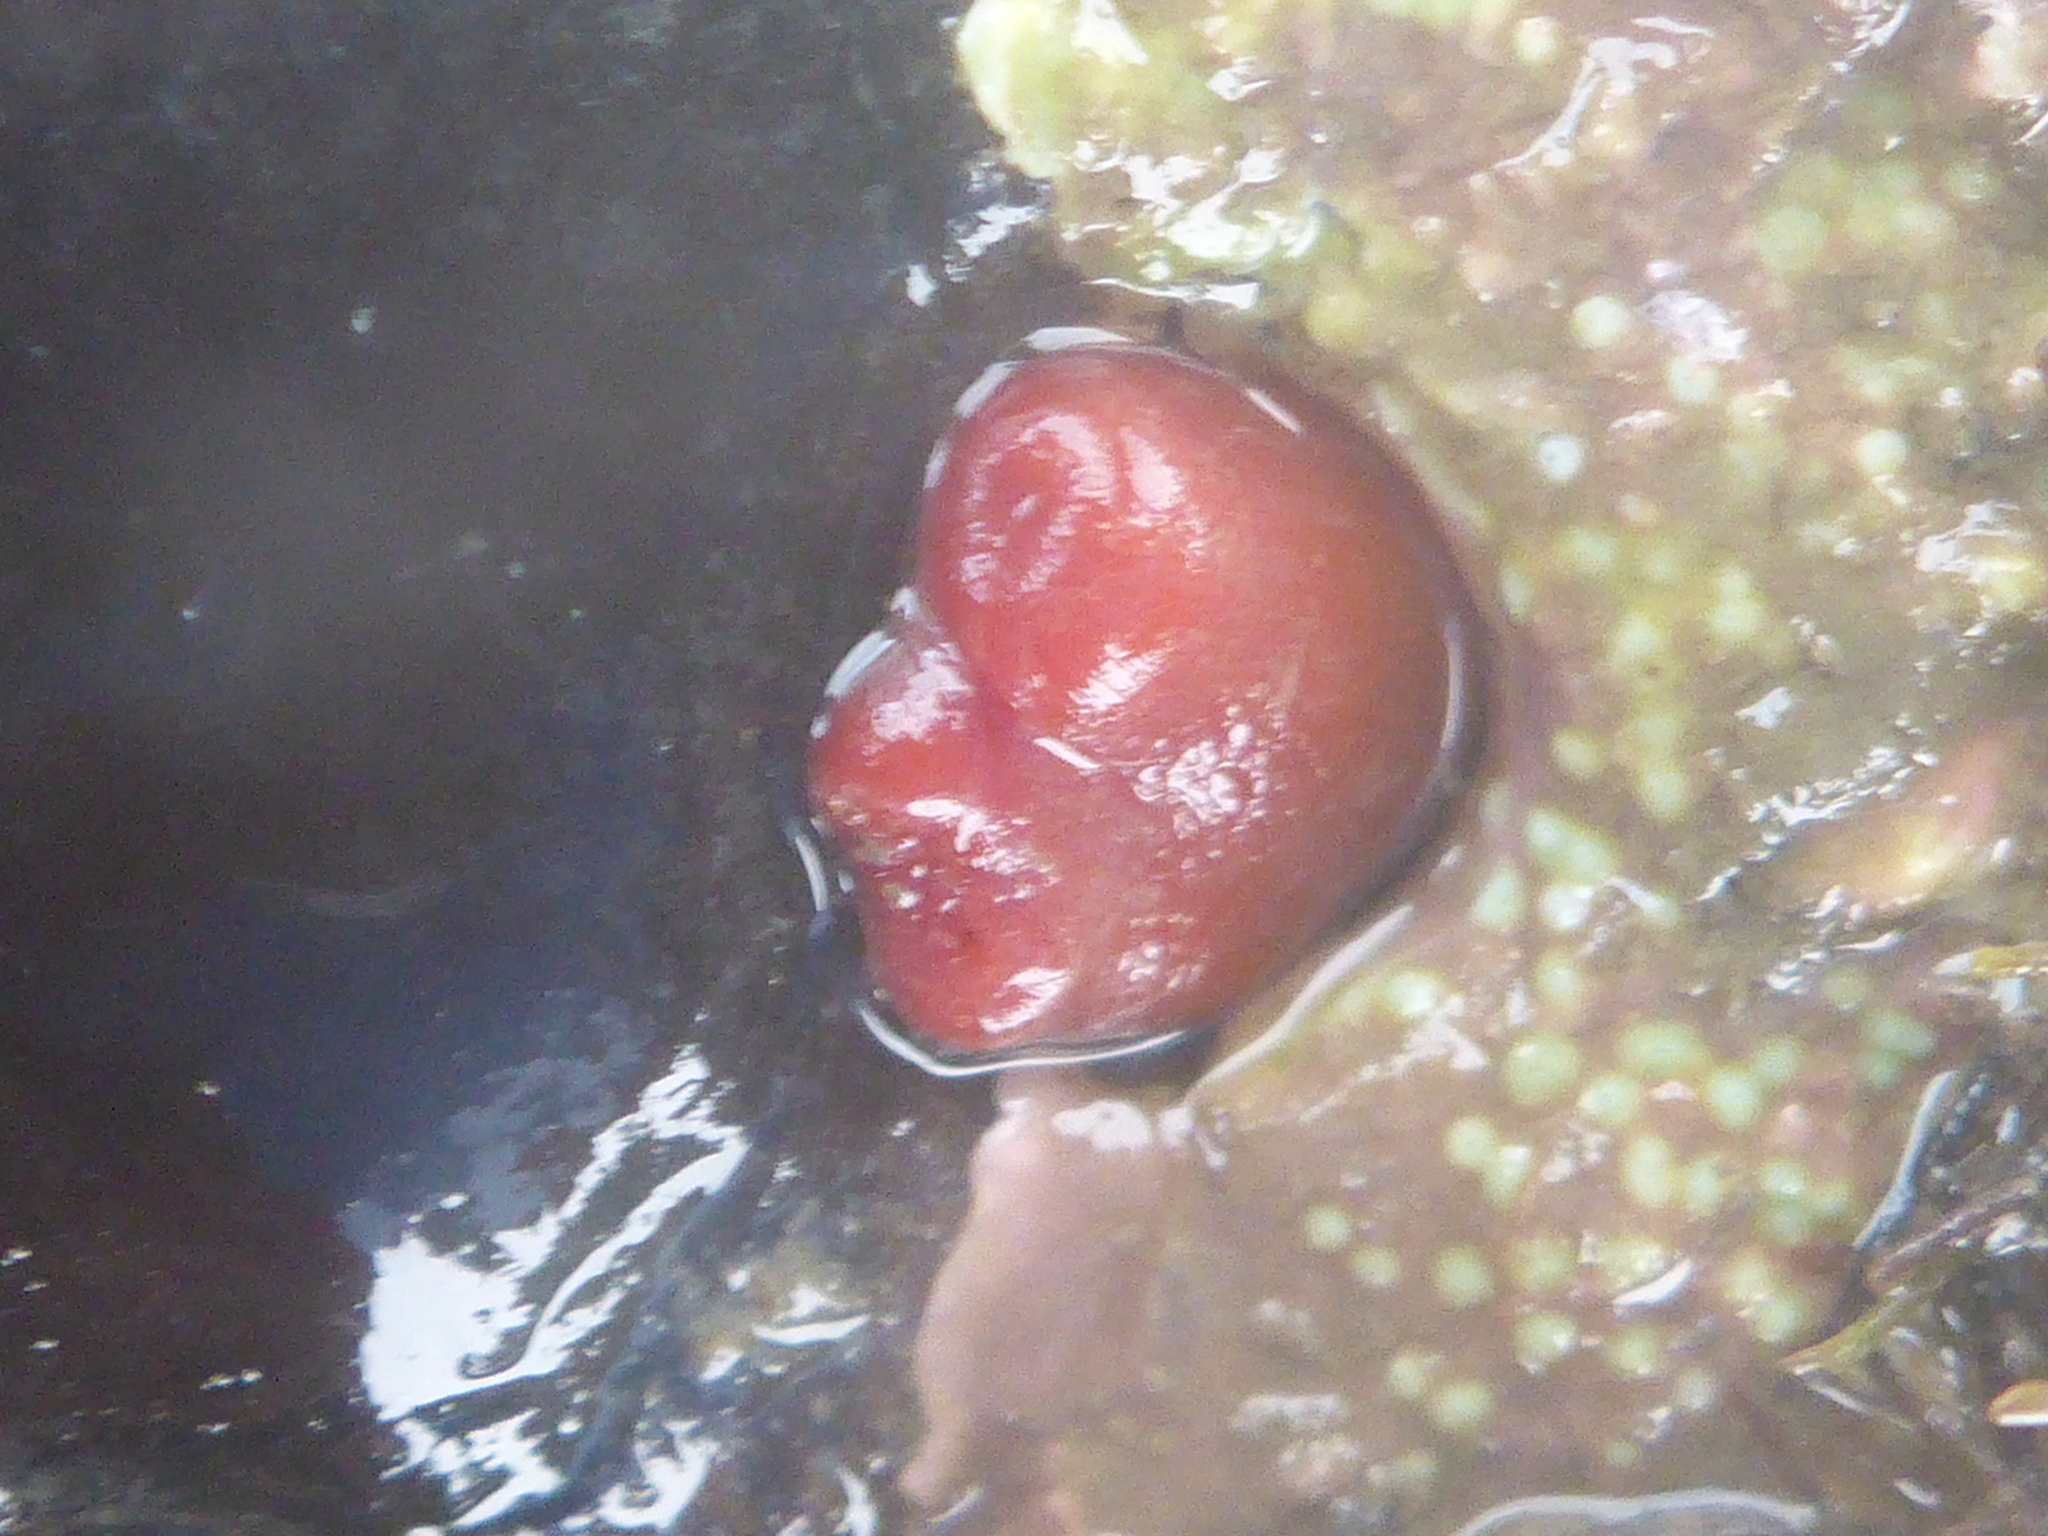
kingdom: Animalia
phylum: Mollusca
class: Bivalvia
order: Adapedonta
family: Hiatellidae
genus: Hiatella
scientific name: Hiatella arctica
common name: Arctic hiatella
